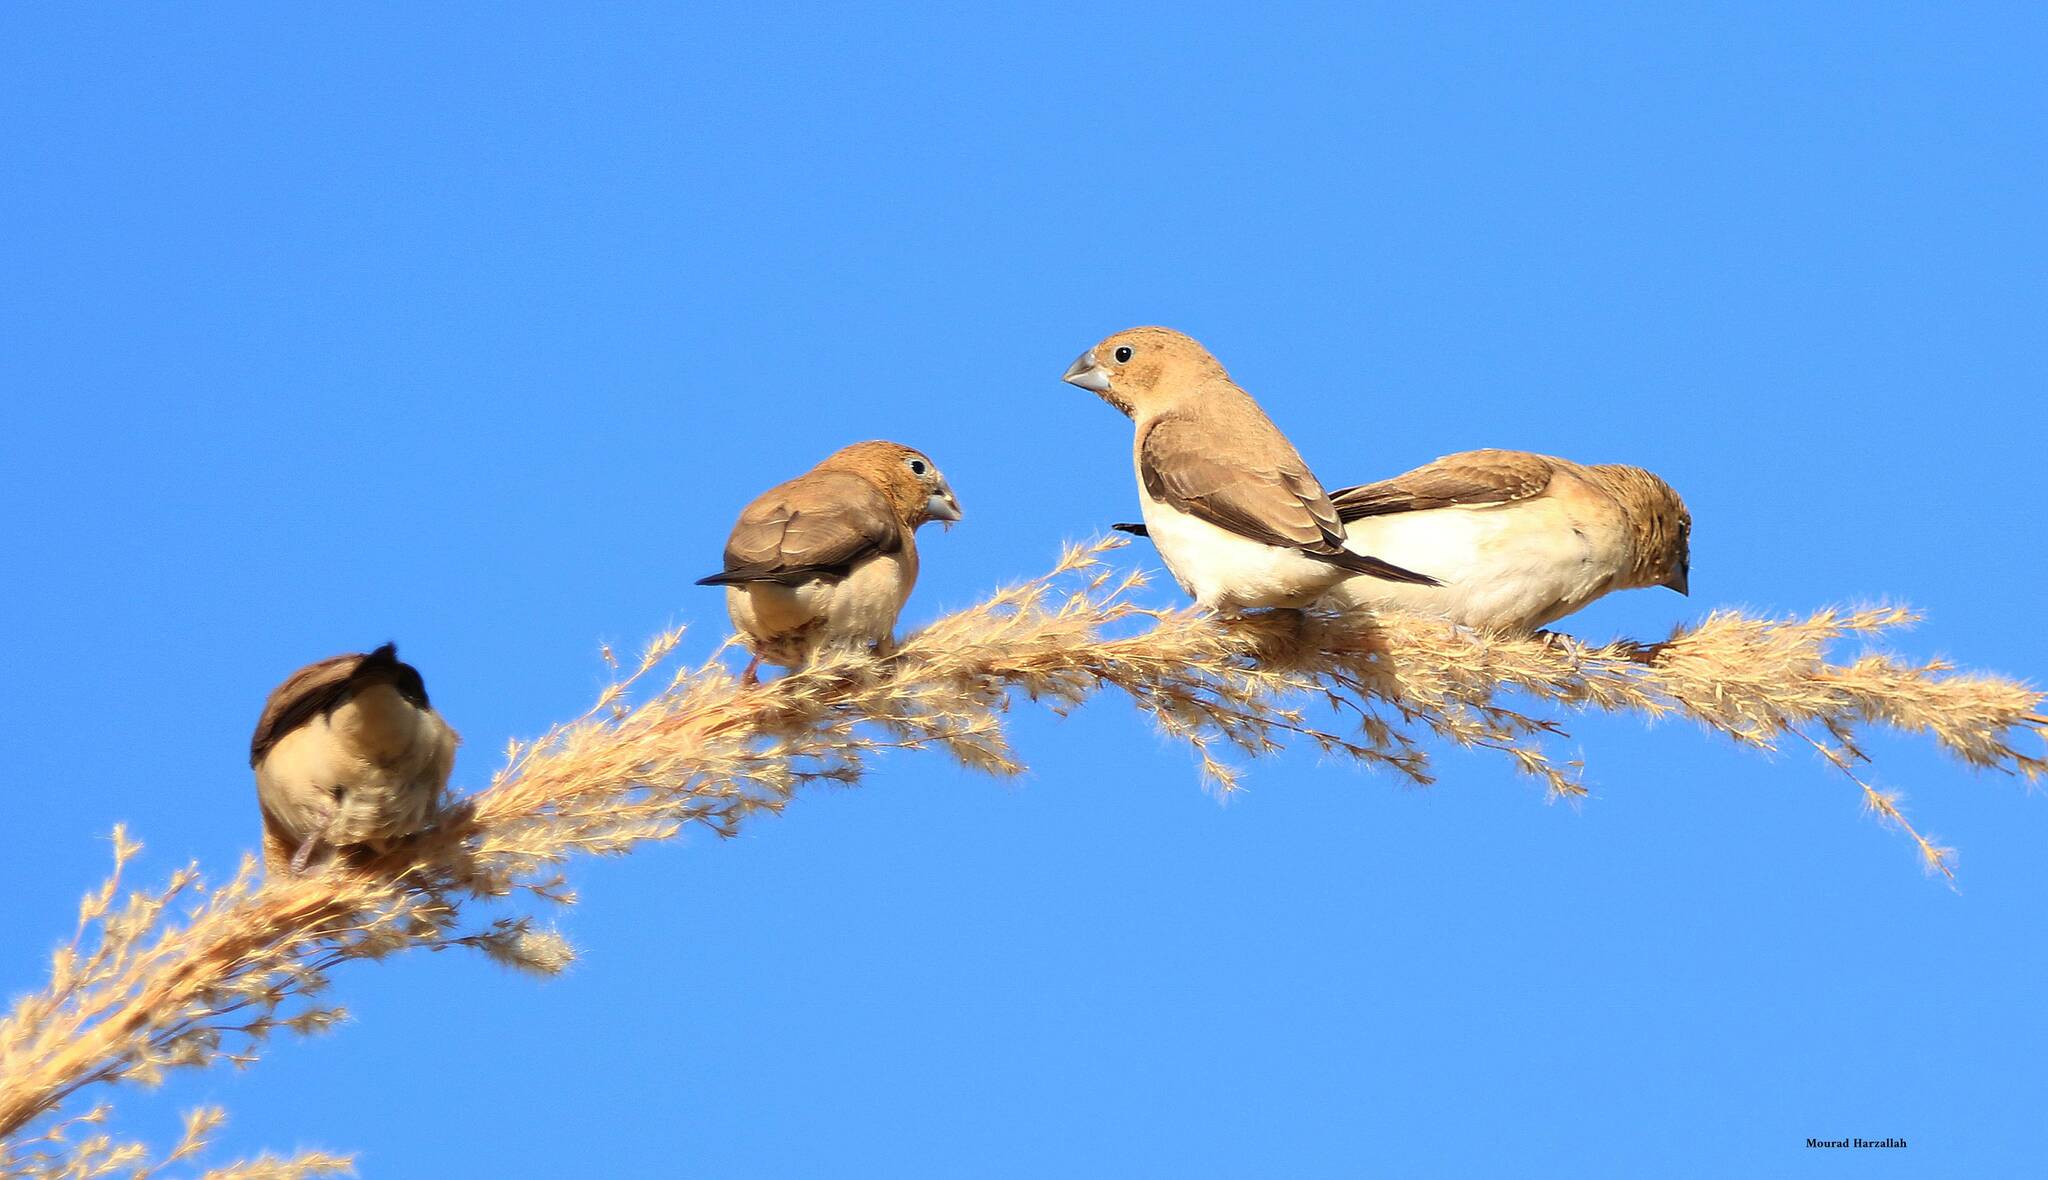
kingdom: Animalia
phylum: Chordata
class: Aves
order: Passeriformes
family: Estrildidae
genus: Euodice
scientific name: Euodice cantans
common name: African silverbill
